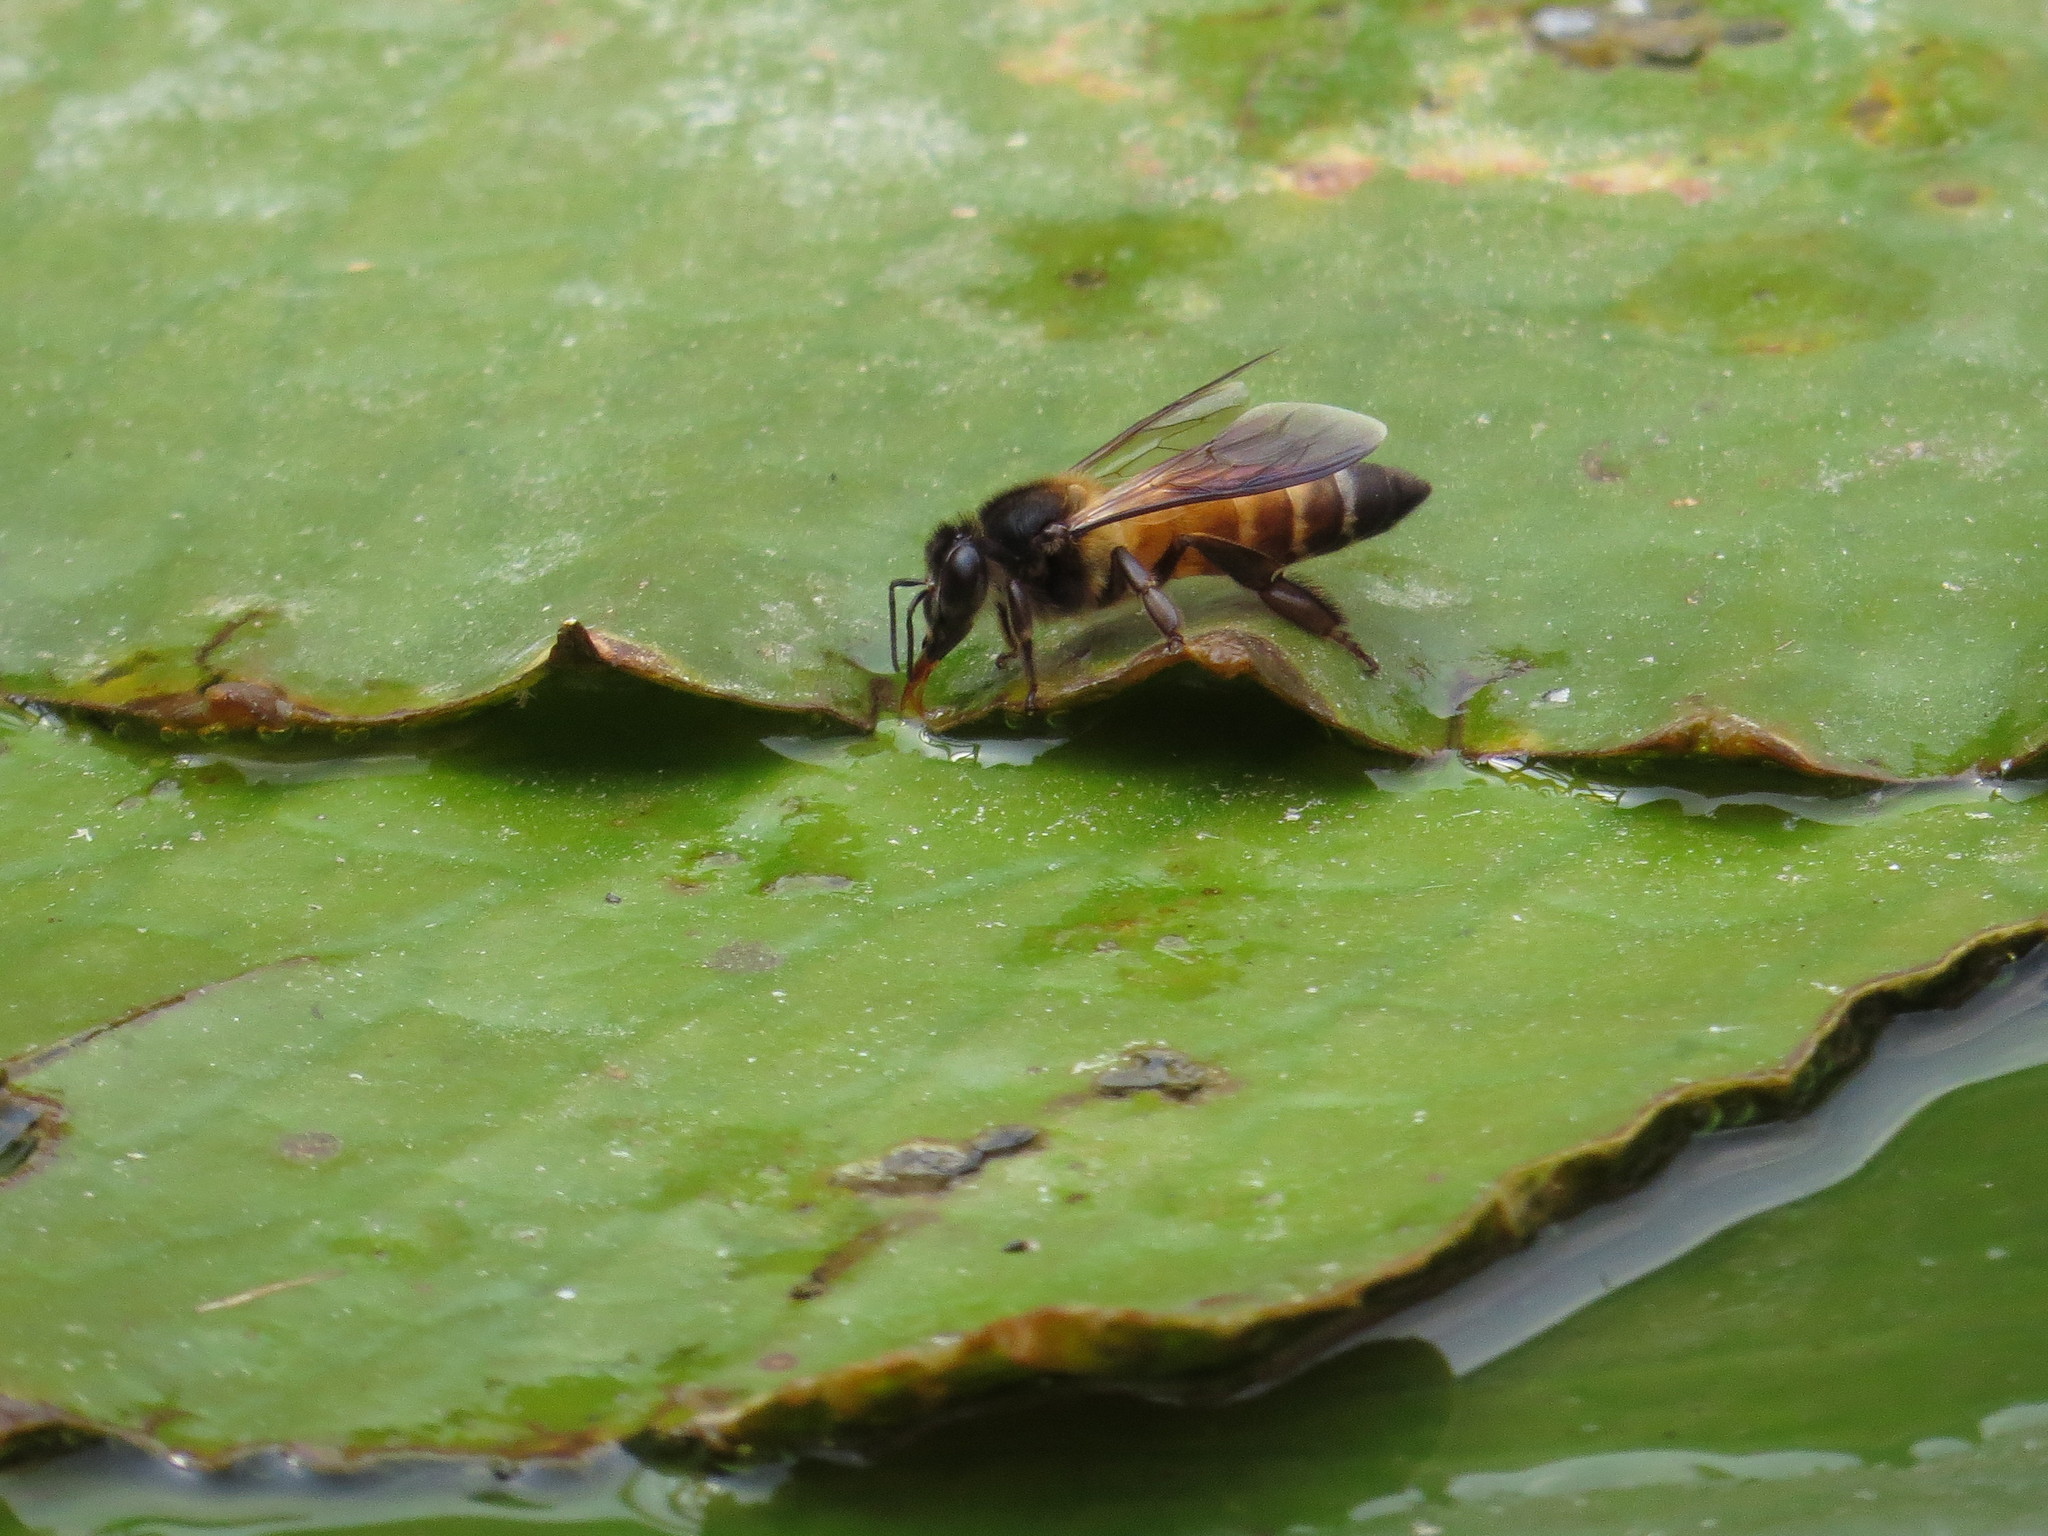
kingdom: Animalia
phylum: Arthropoda
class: Insecta
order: Hymenoptera
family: Apidae
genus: Apis
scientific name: Apis dorsata
